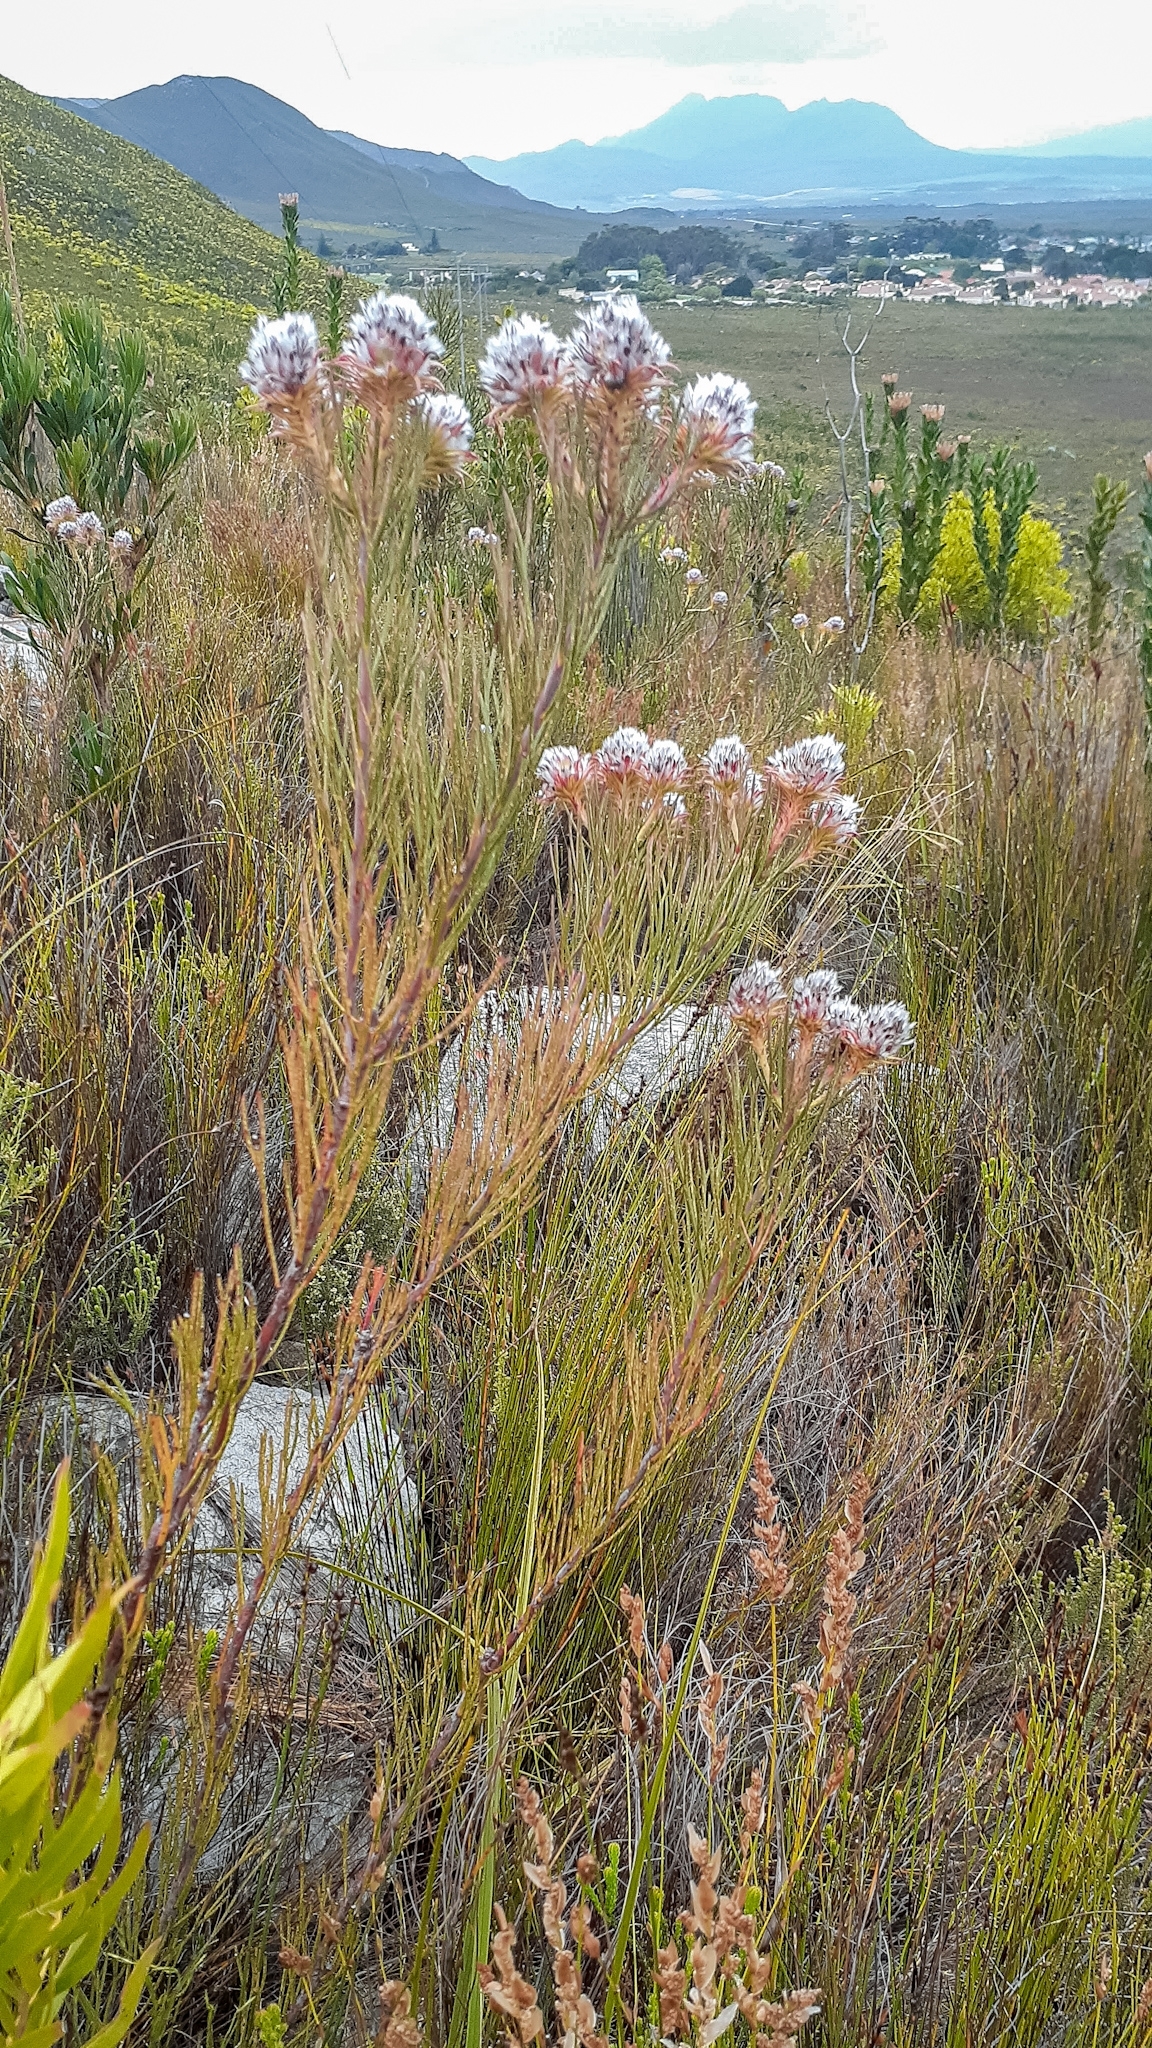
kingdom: Plantae
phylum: Tracheophyta
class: Magnoliopsida
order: Proteales
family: Proteaceae
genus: Serruria
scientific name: Serruria phylicoides
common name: Bearded spiderhead
